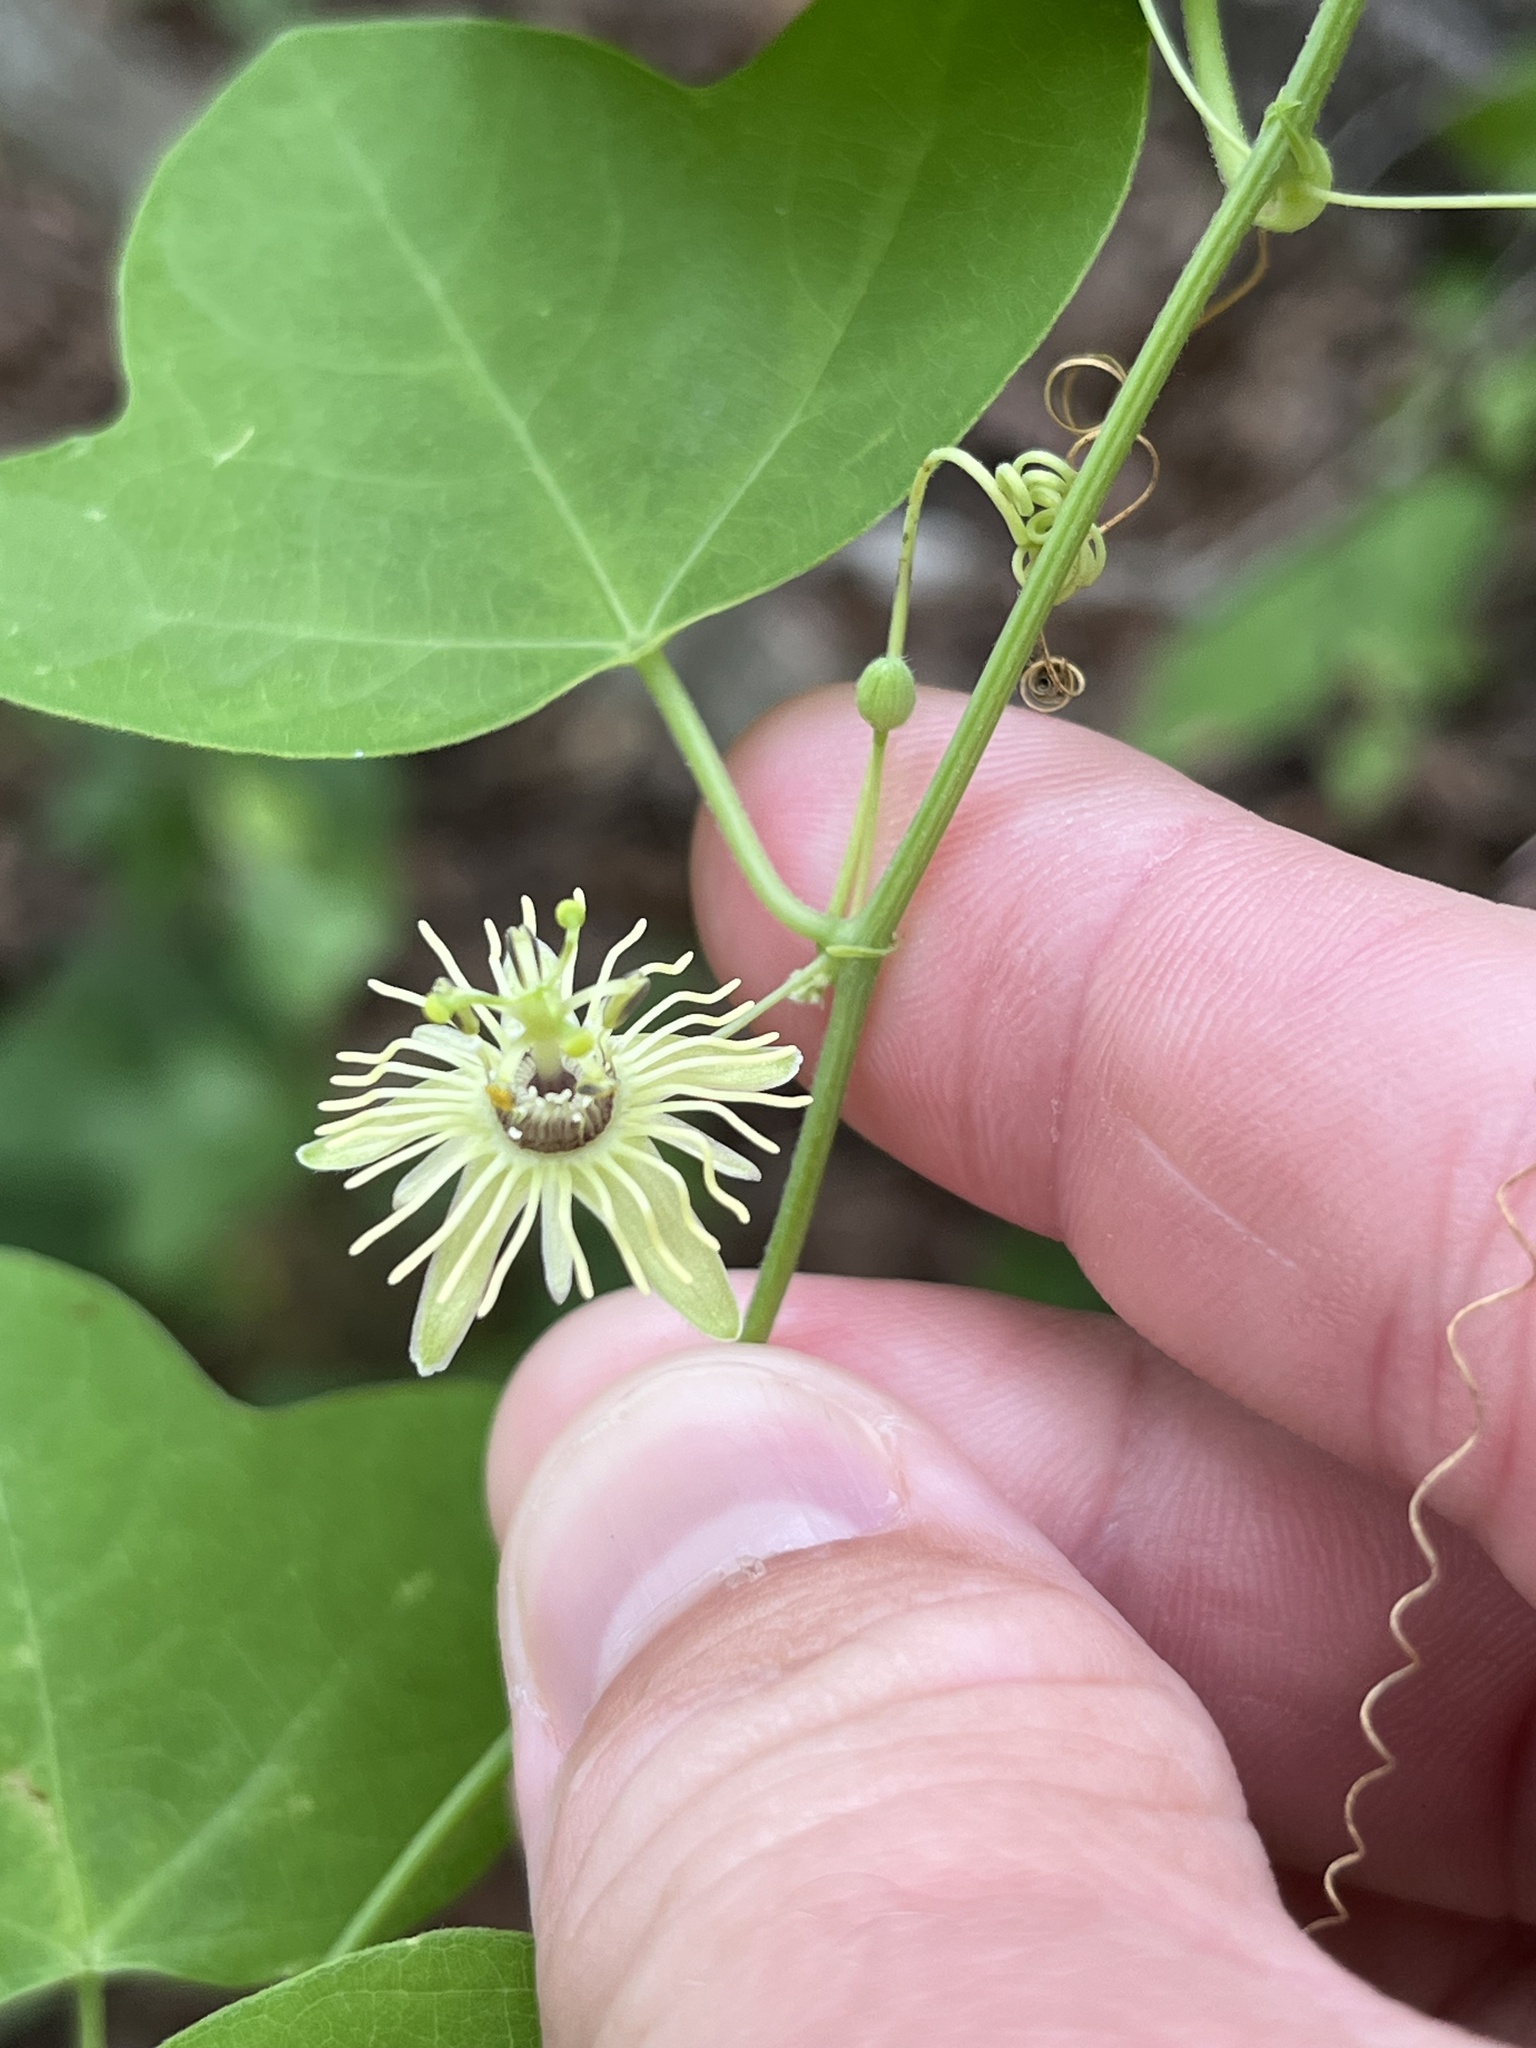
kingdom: Plantae
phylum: Tracheophyta
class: Magnoliopsida
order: Malpighiales
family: Passifloraceae
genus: Passiflora
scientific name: Passiflora lutea
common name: Yellow passionflower
